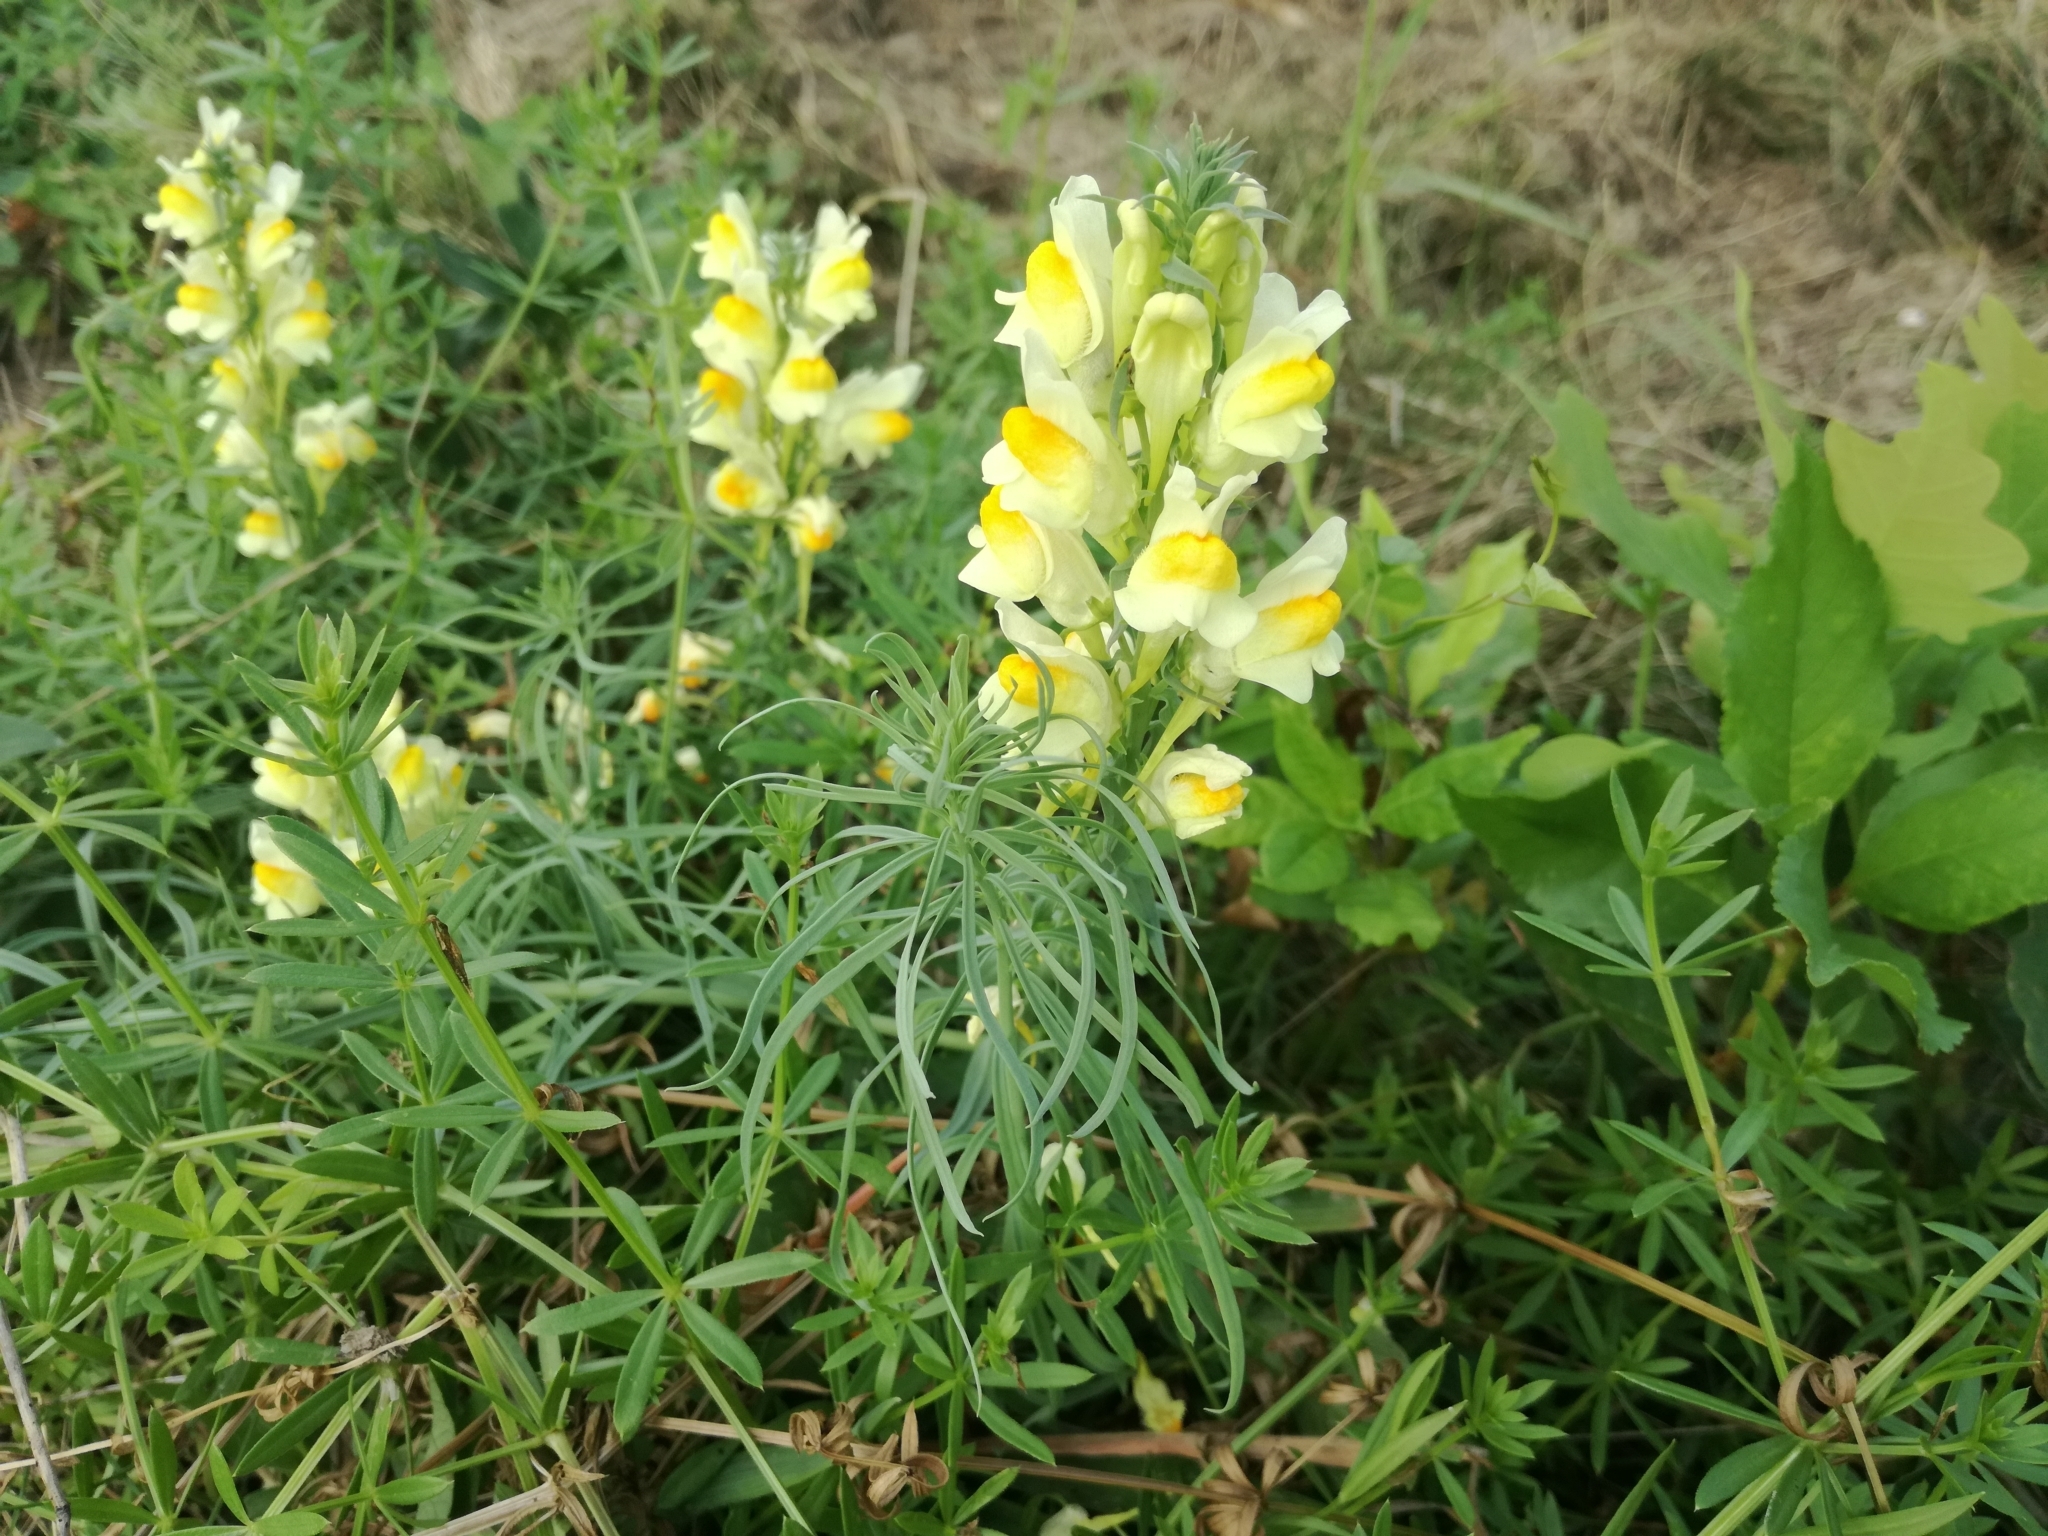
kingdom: Plantae
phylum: Tracheophyta
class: Magnoliopsida
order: Lamiales
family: Plantaginaceae
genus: Linaria
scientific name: Linaria vulgaris
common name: Butter and eggs
